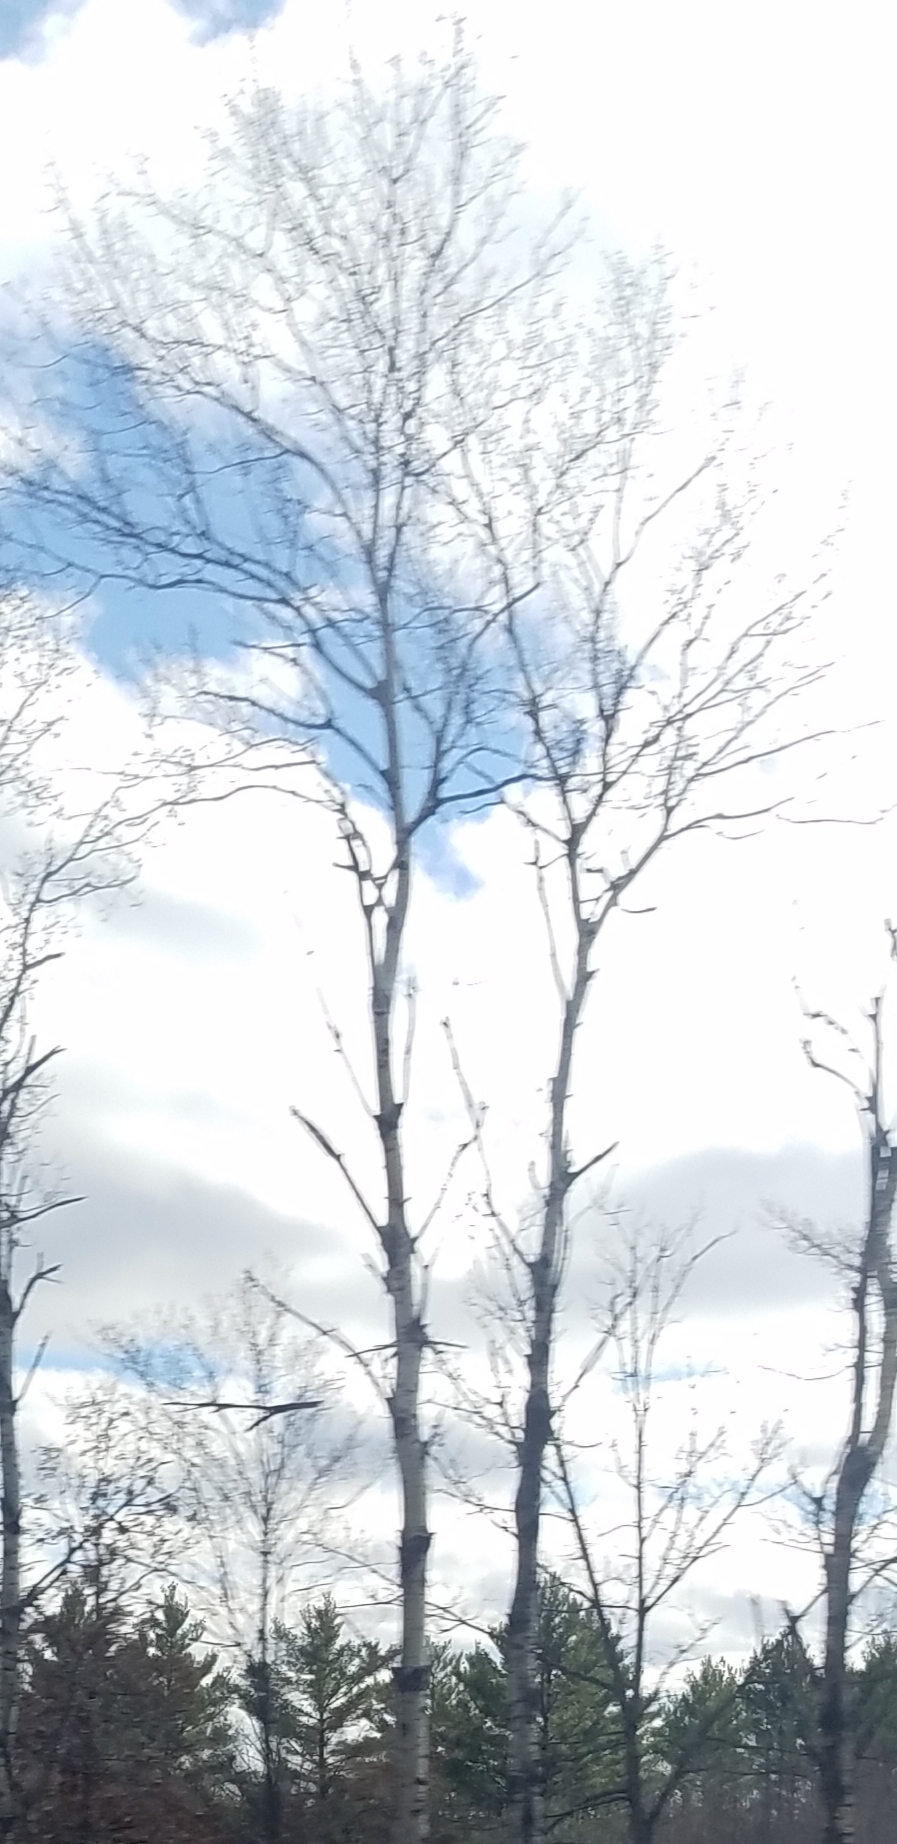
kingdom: Plantae
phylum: Tracheophyta
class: Magnoliopsida
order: Malpighiales
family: Salicaceae
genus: Populus
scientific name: Populus tremuloides
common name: Quaking aspen
